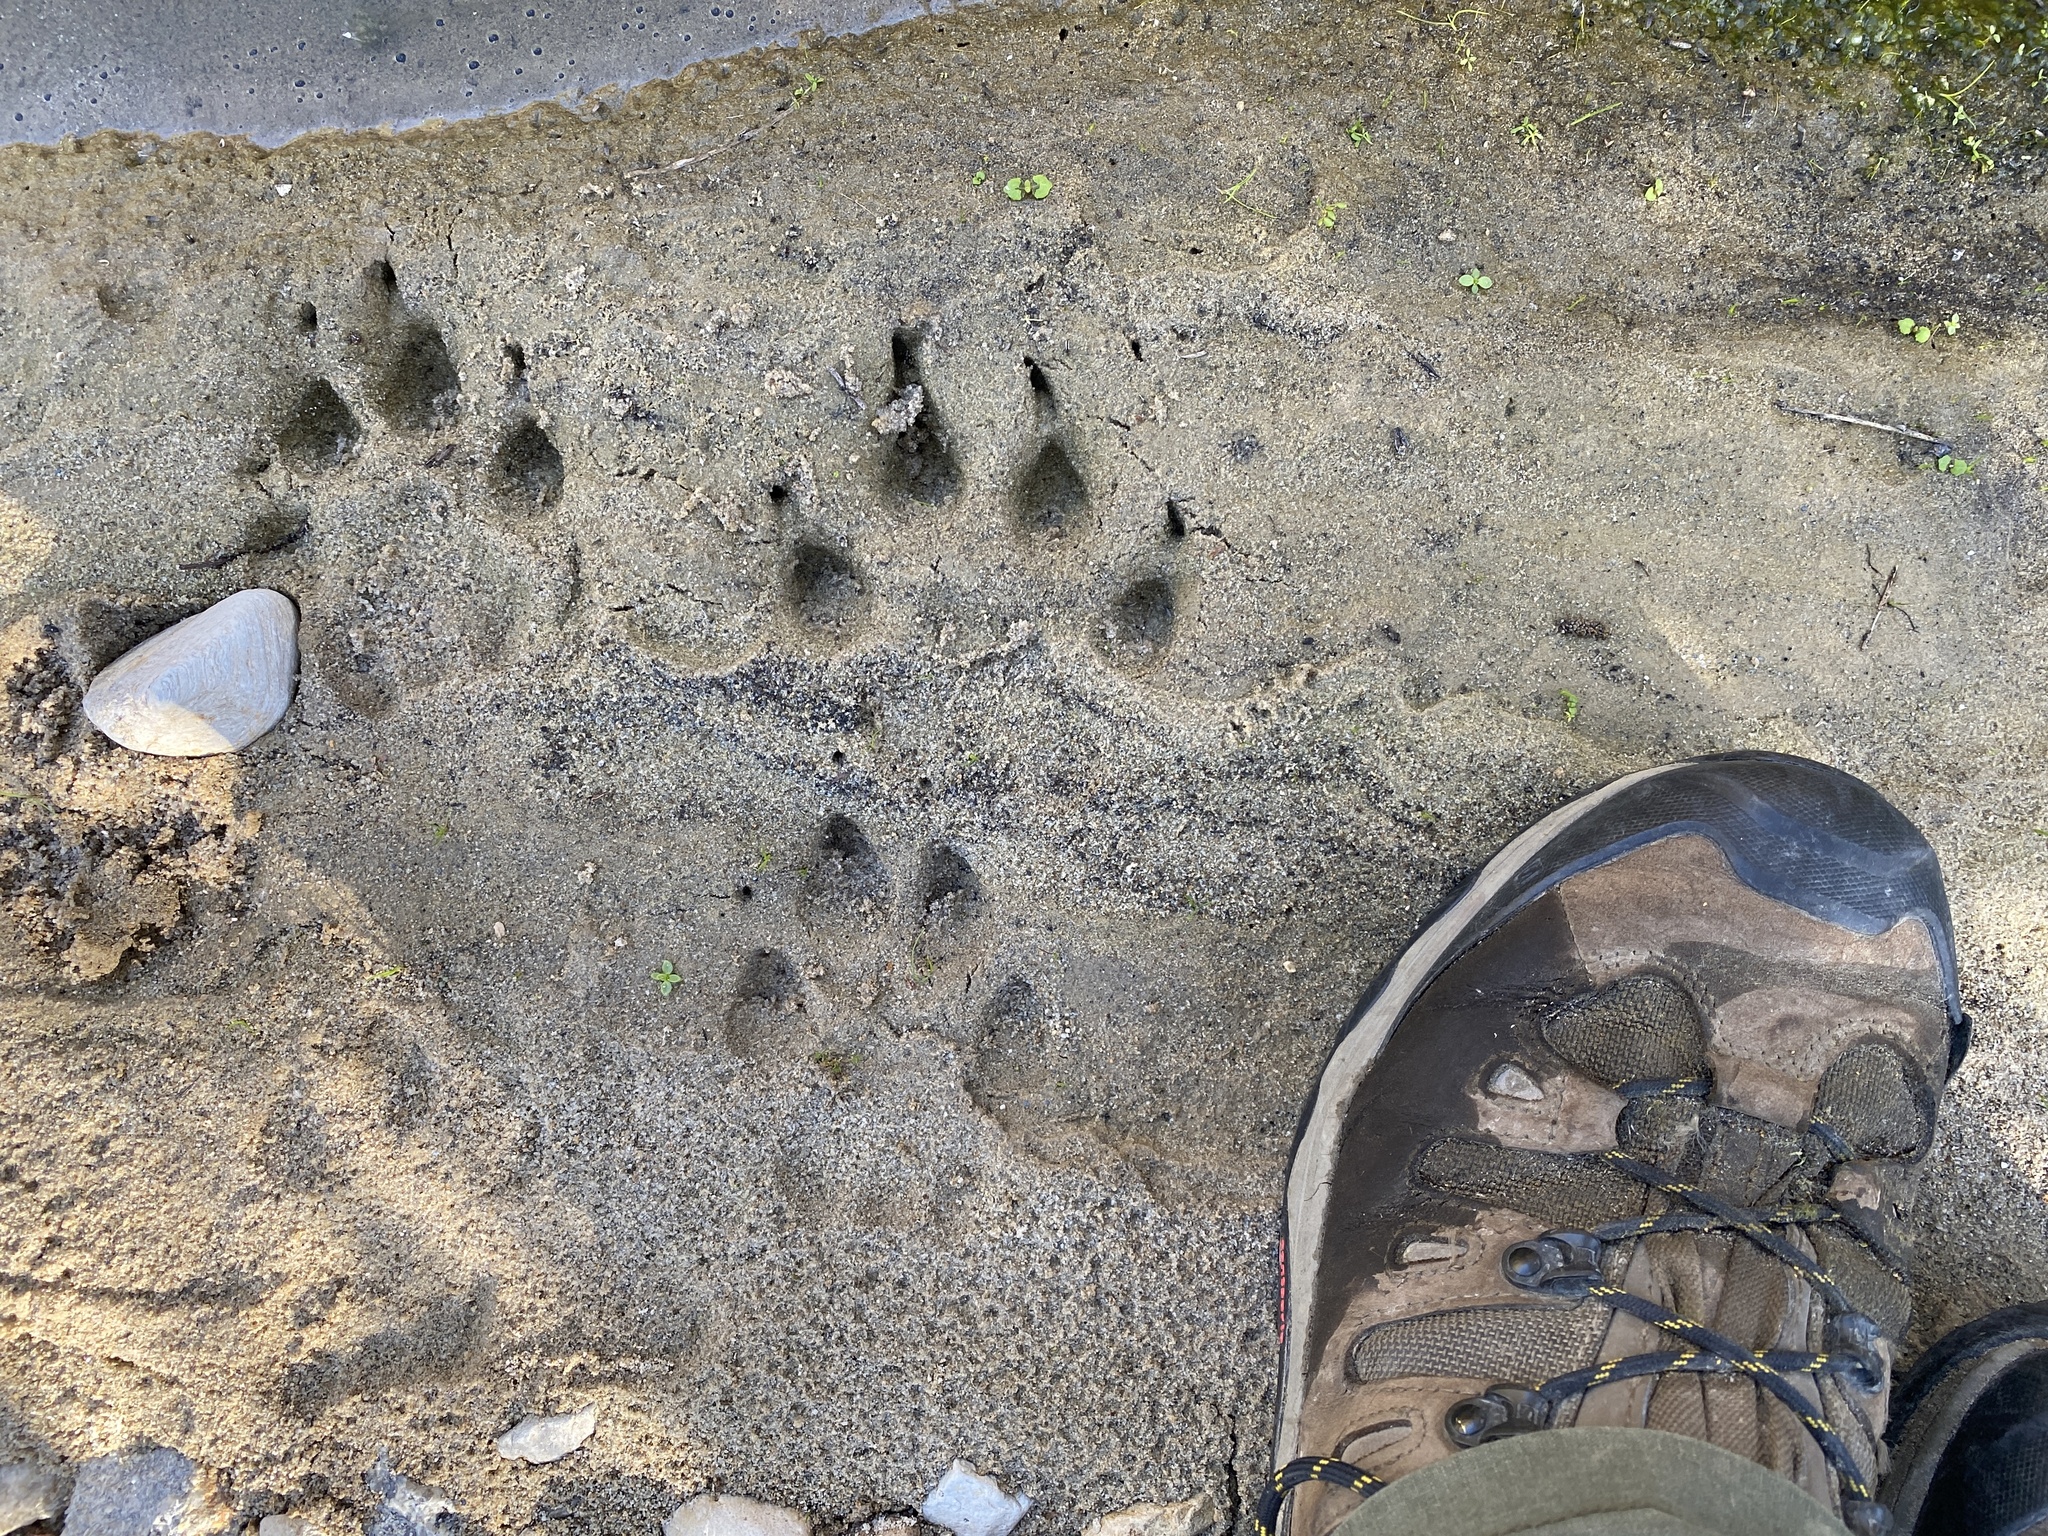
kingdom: Animalia
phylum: Chordata
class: Mammalia
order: Carnivora
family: Felidae
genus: Puma
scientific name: Puma concolor
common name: Puma
